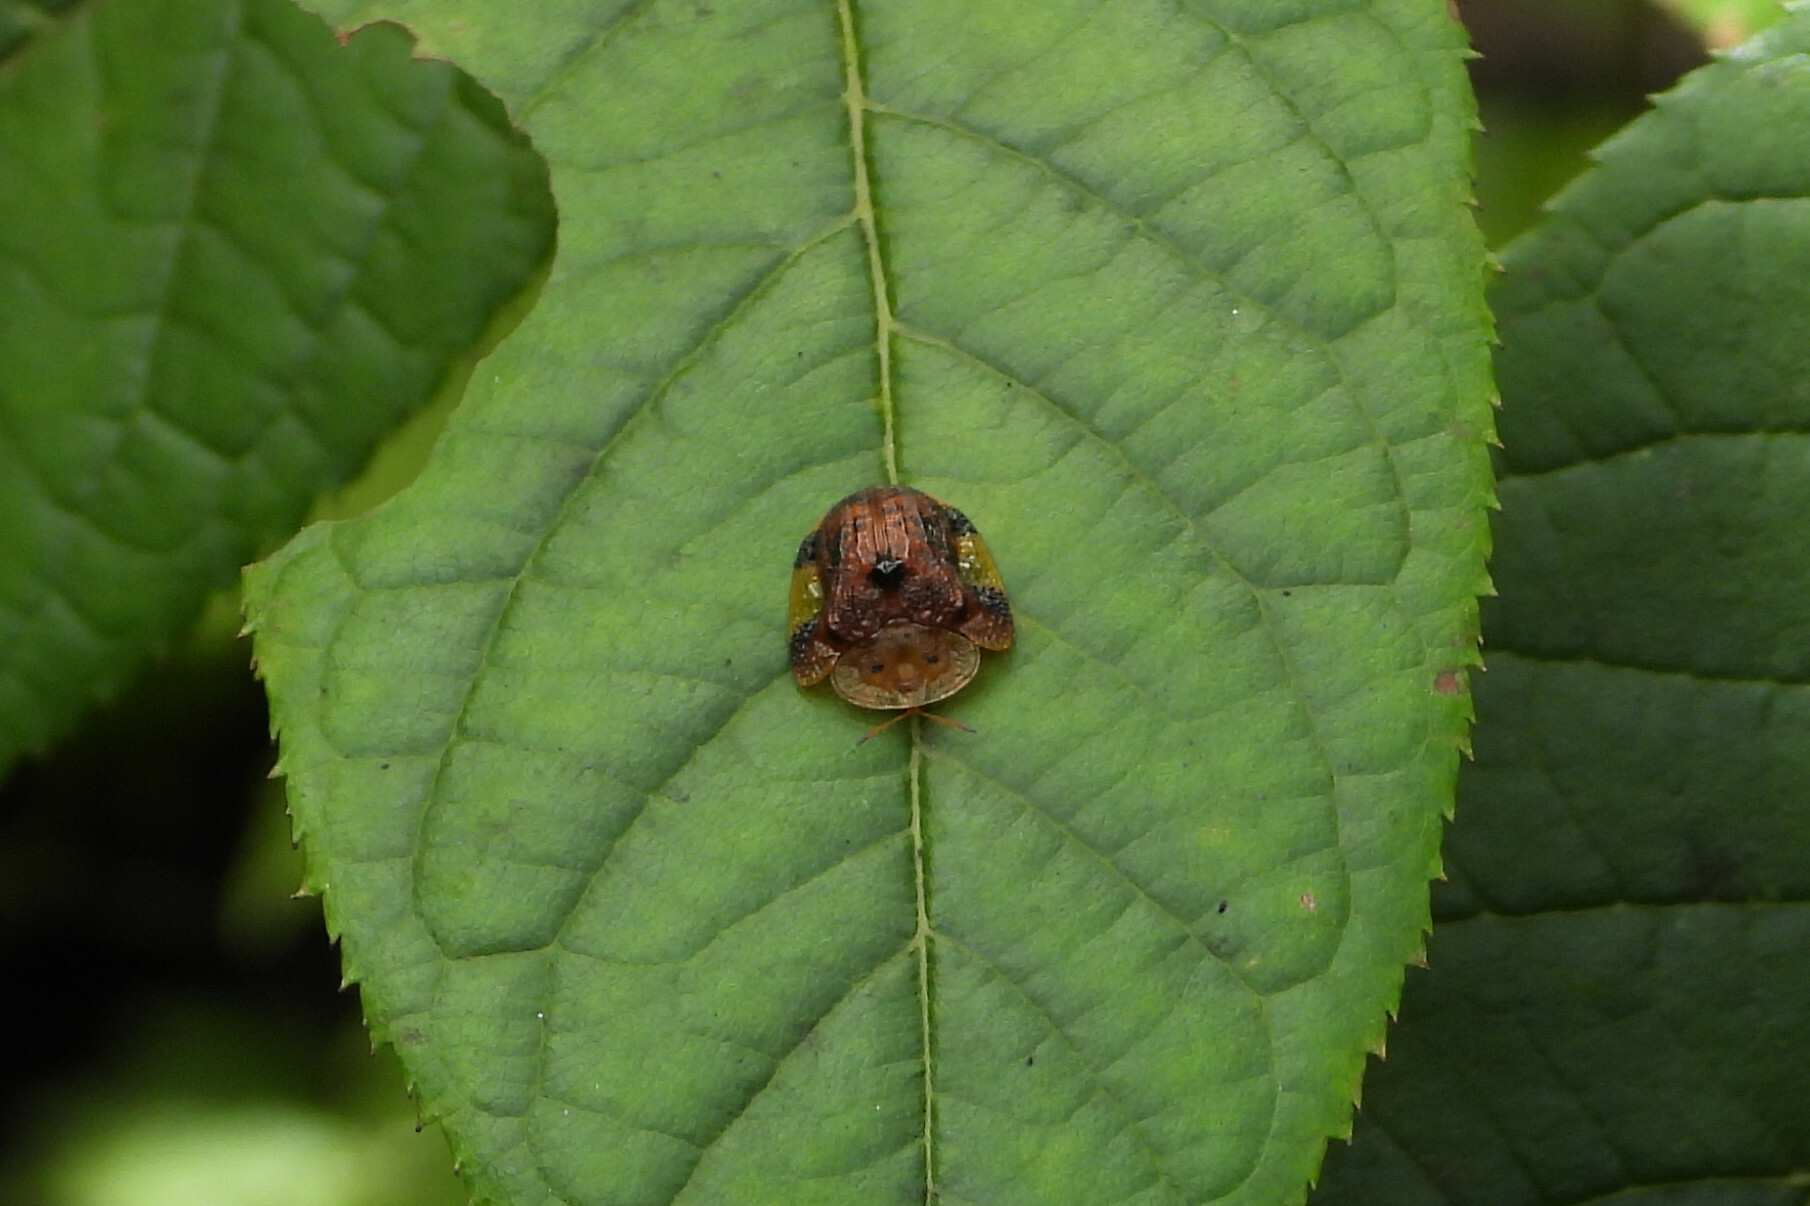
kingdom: Animalia
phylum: Arthropoda
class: Insecta
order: Coleoptera
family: Chrysomelidae
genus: Laccoptera
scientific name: Laccoptera nepalensis
